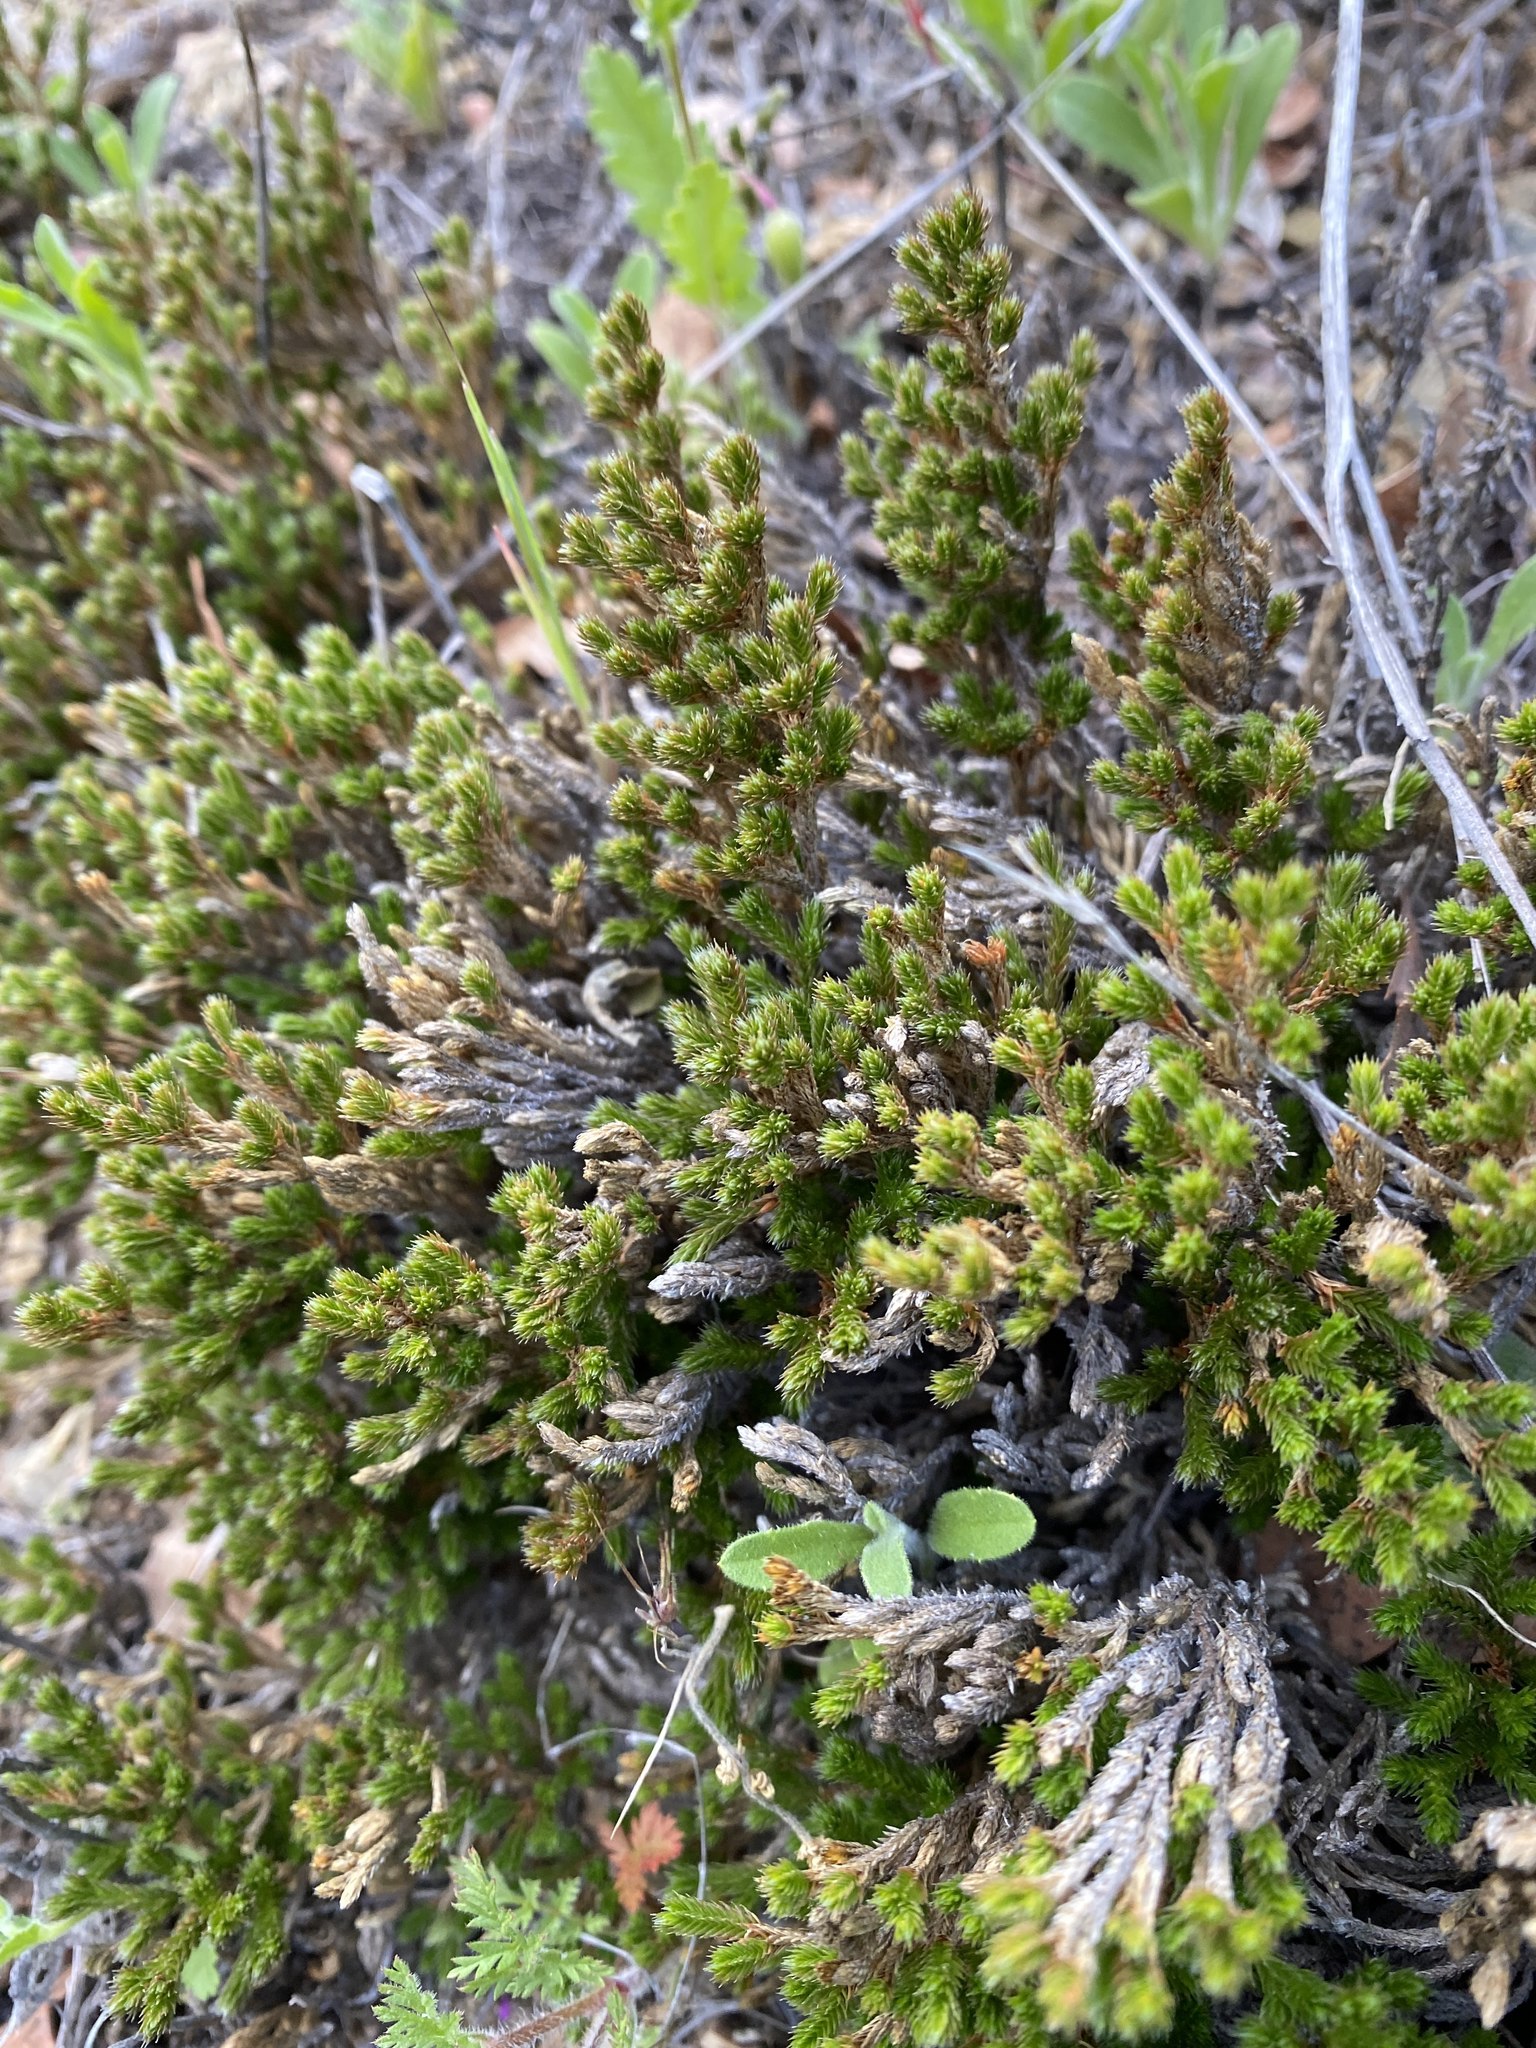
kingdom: Plantae
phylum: Tracheophyta
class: Lycopodiopsida
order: Selaginellales
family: Selaginellaceae
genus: Selaginella
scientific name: Selaginella bigelovii
